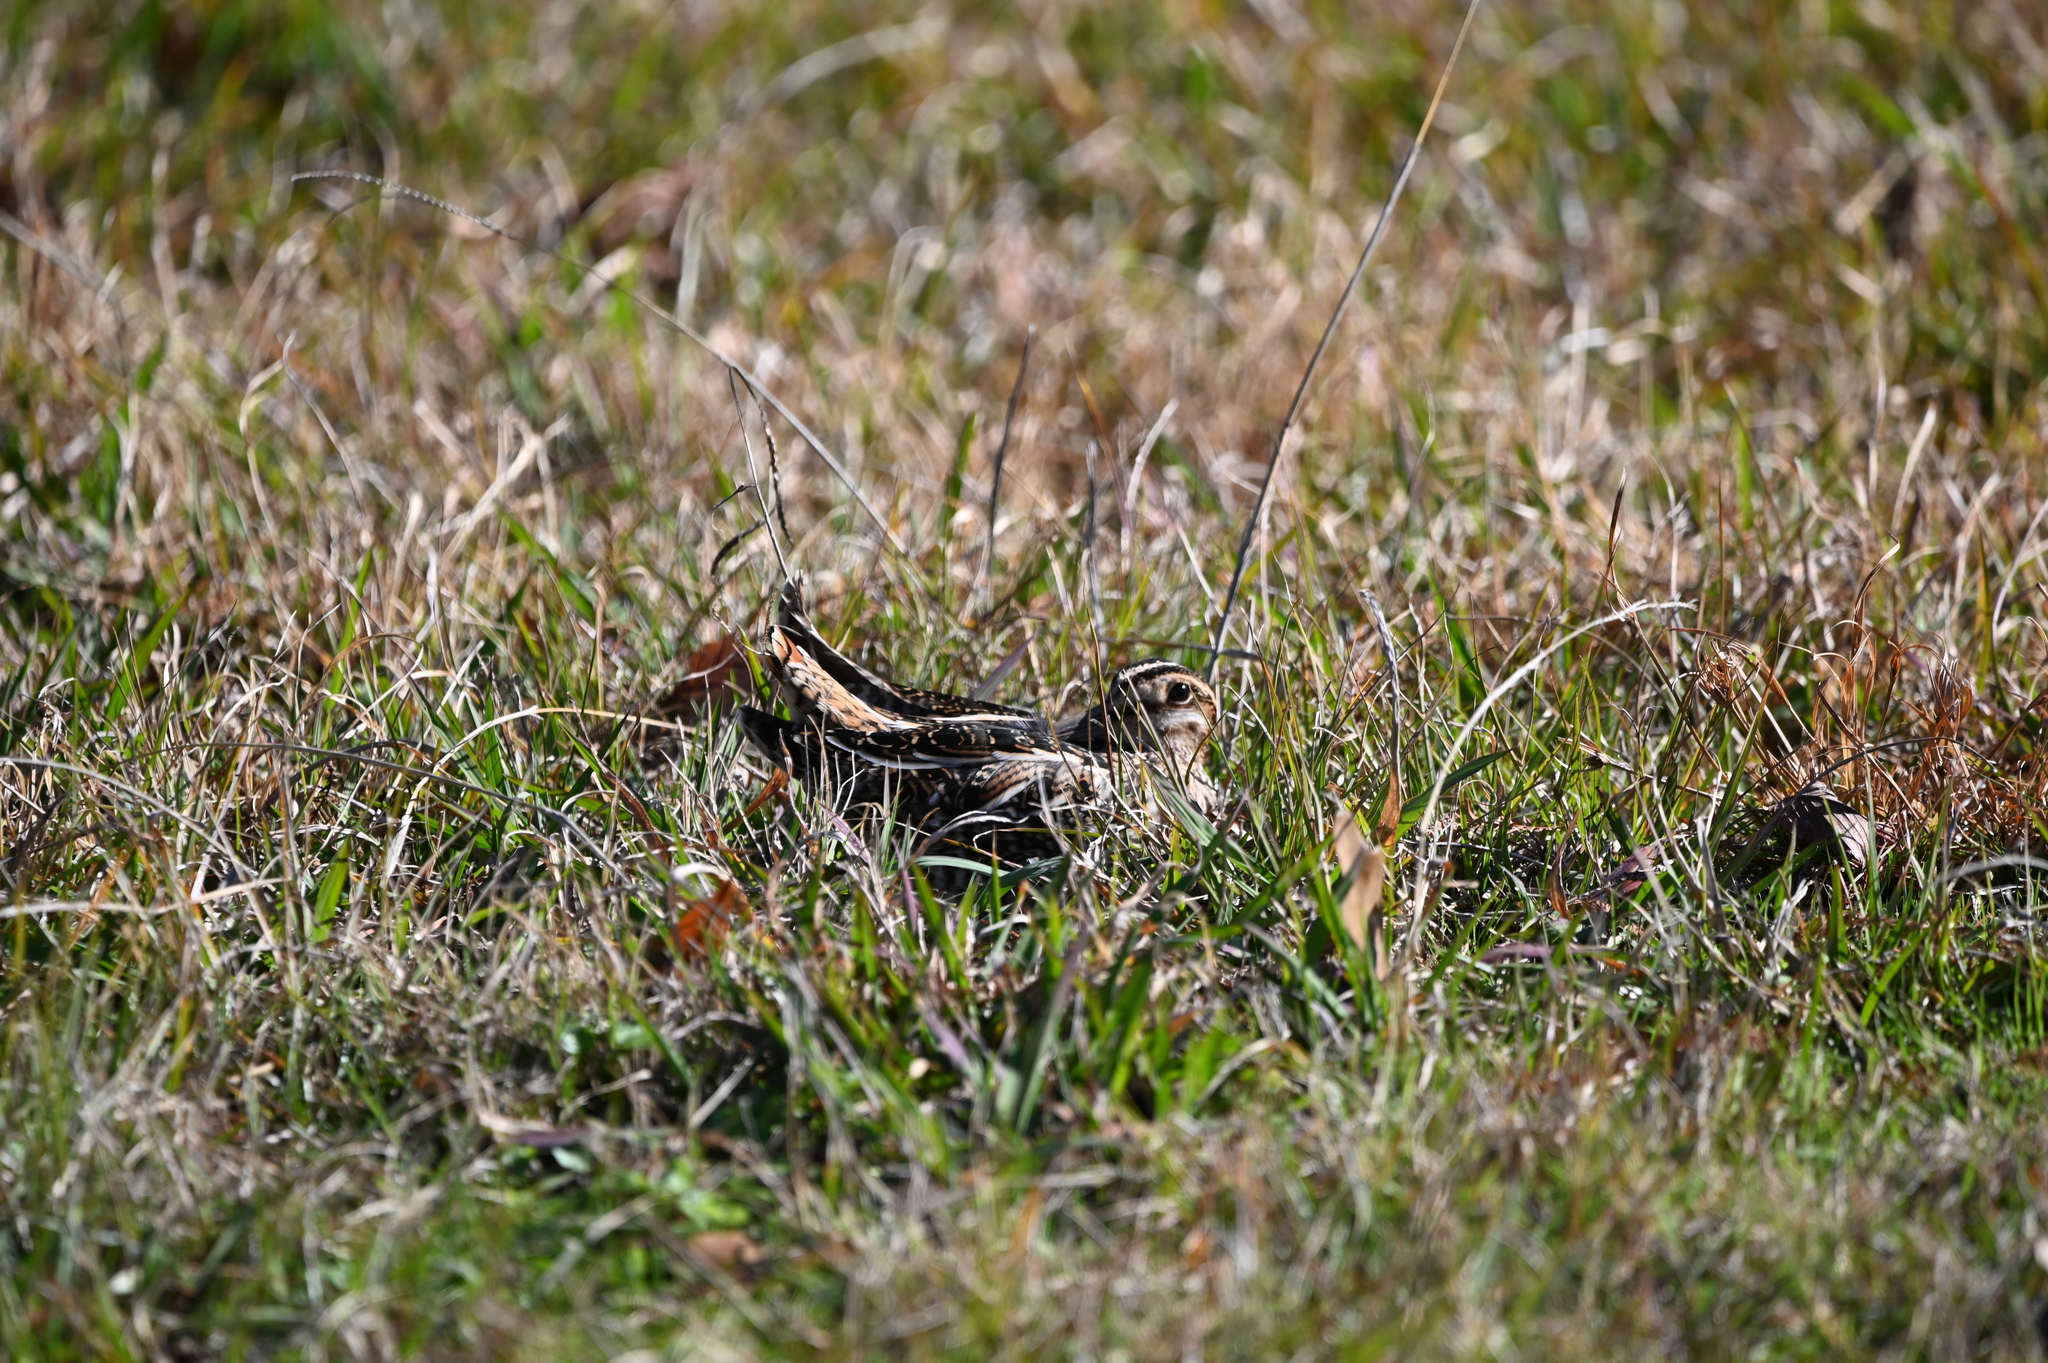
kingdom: Animalia
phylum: Chordata
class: Aves
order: Charadriiformes
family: Scolopacidae
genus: Gallinago
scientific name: Gallinago delicata
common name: Wilson's snipe
